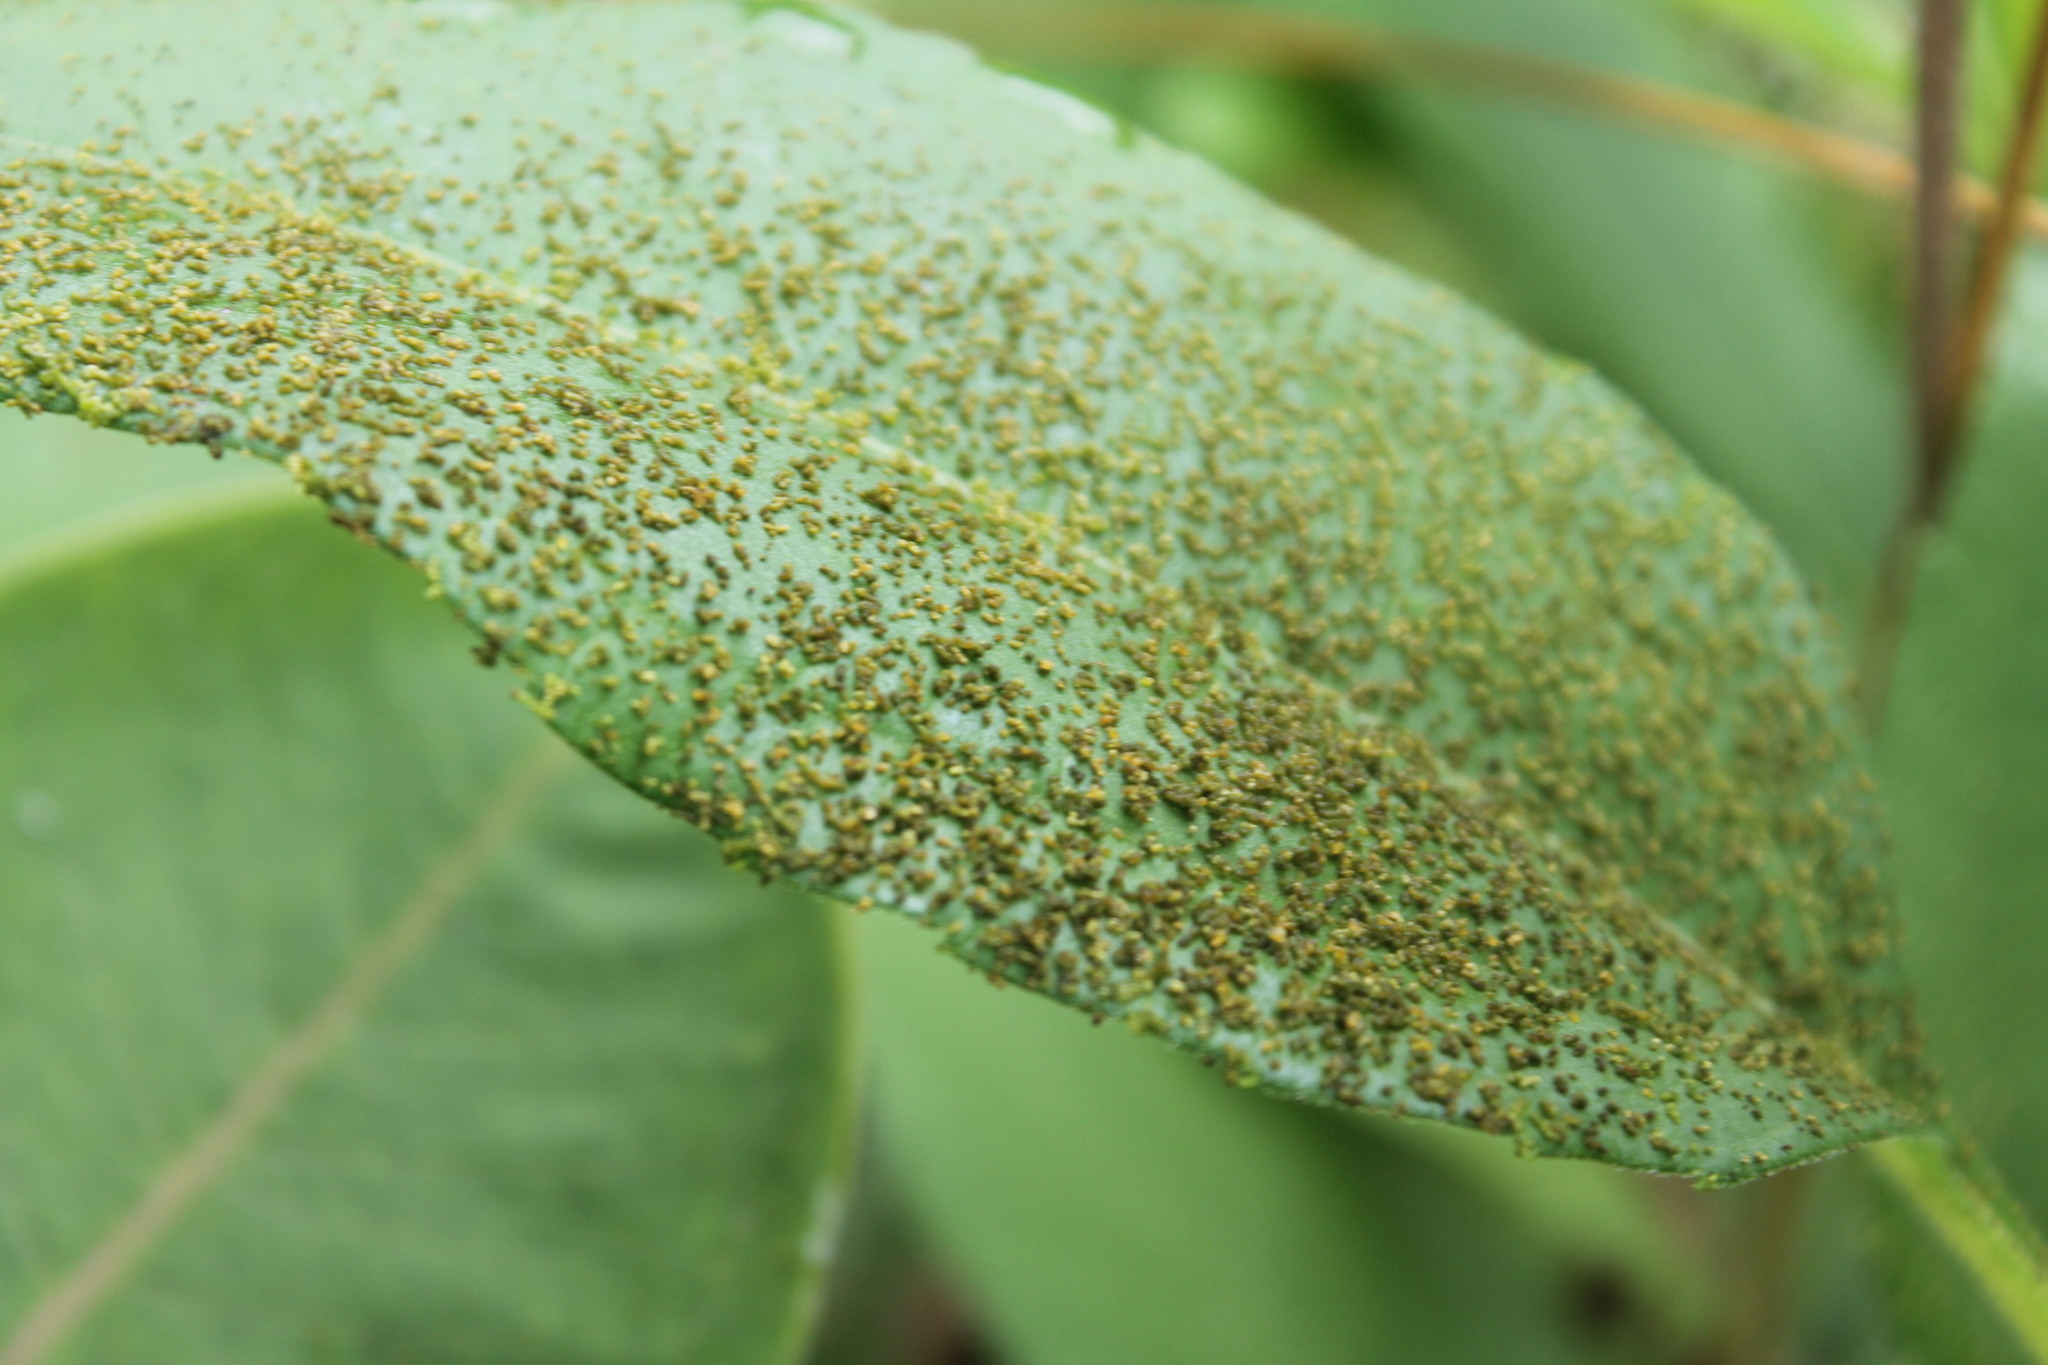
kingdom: Animalia
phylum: Arthropoda
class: Insecta
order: Lepidoptera
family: Erebidae
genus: Euchaetes
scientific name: Euchaetes egle
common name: Milkweed tussock moth
